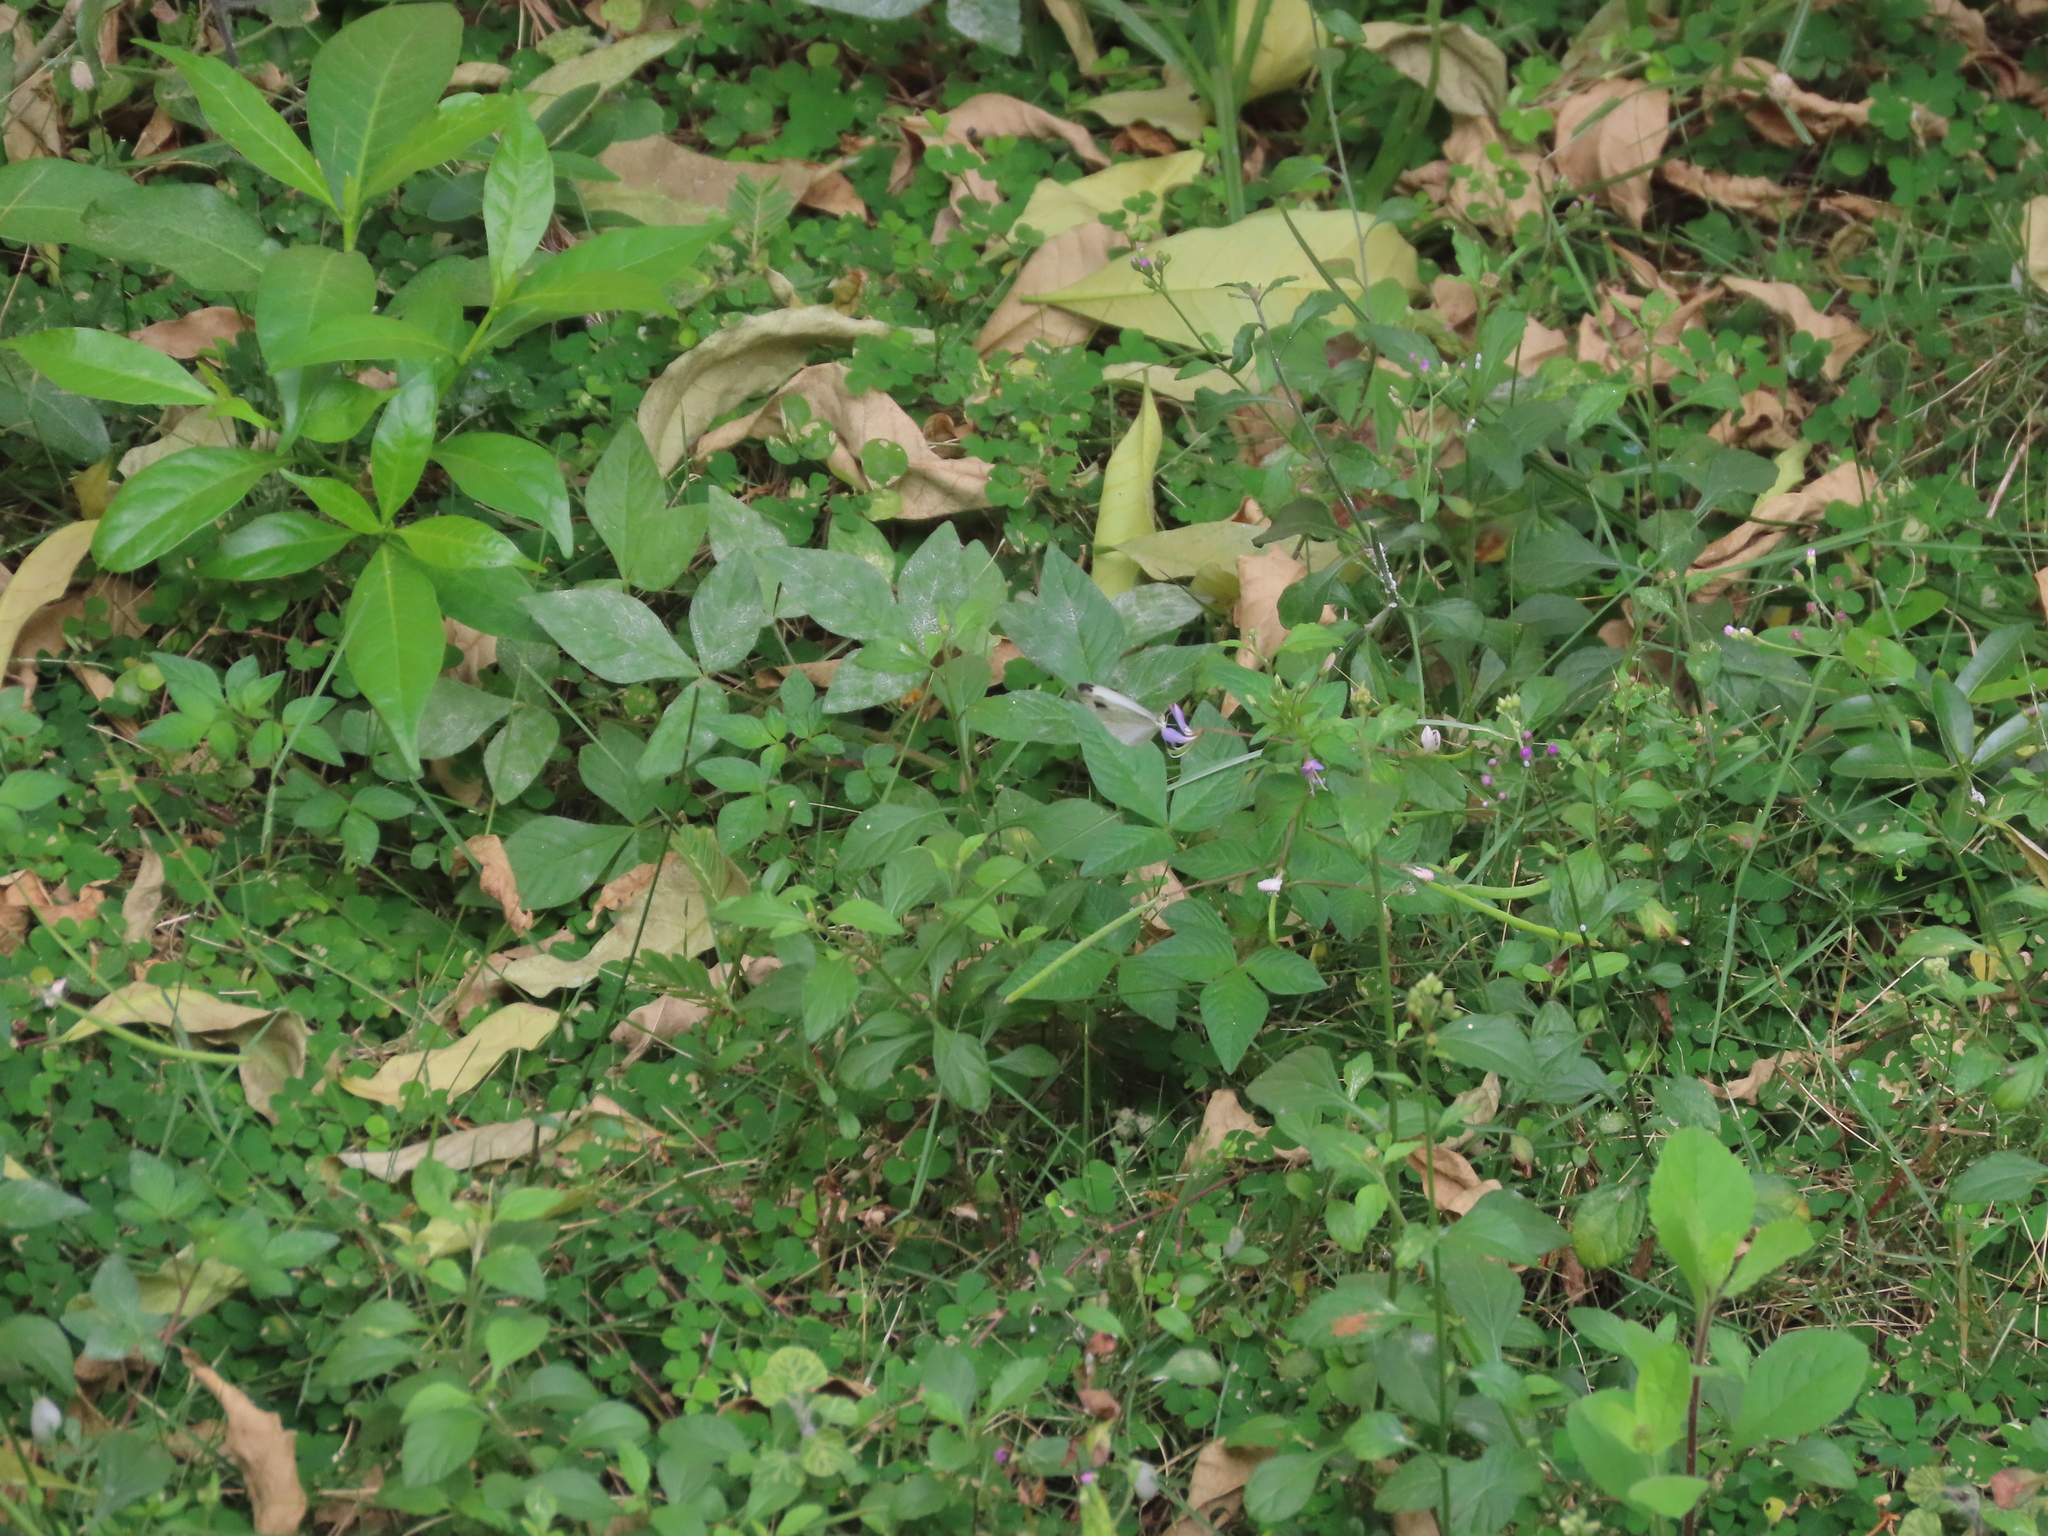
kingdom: Plantae
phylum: Tracheophyta
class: Magnoliopsida
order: Brassicales
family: Cleomaceae
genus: Sieruela
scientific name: Sieruela rutidosperma
